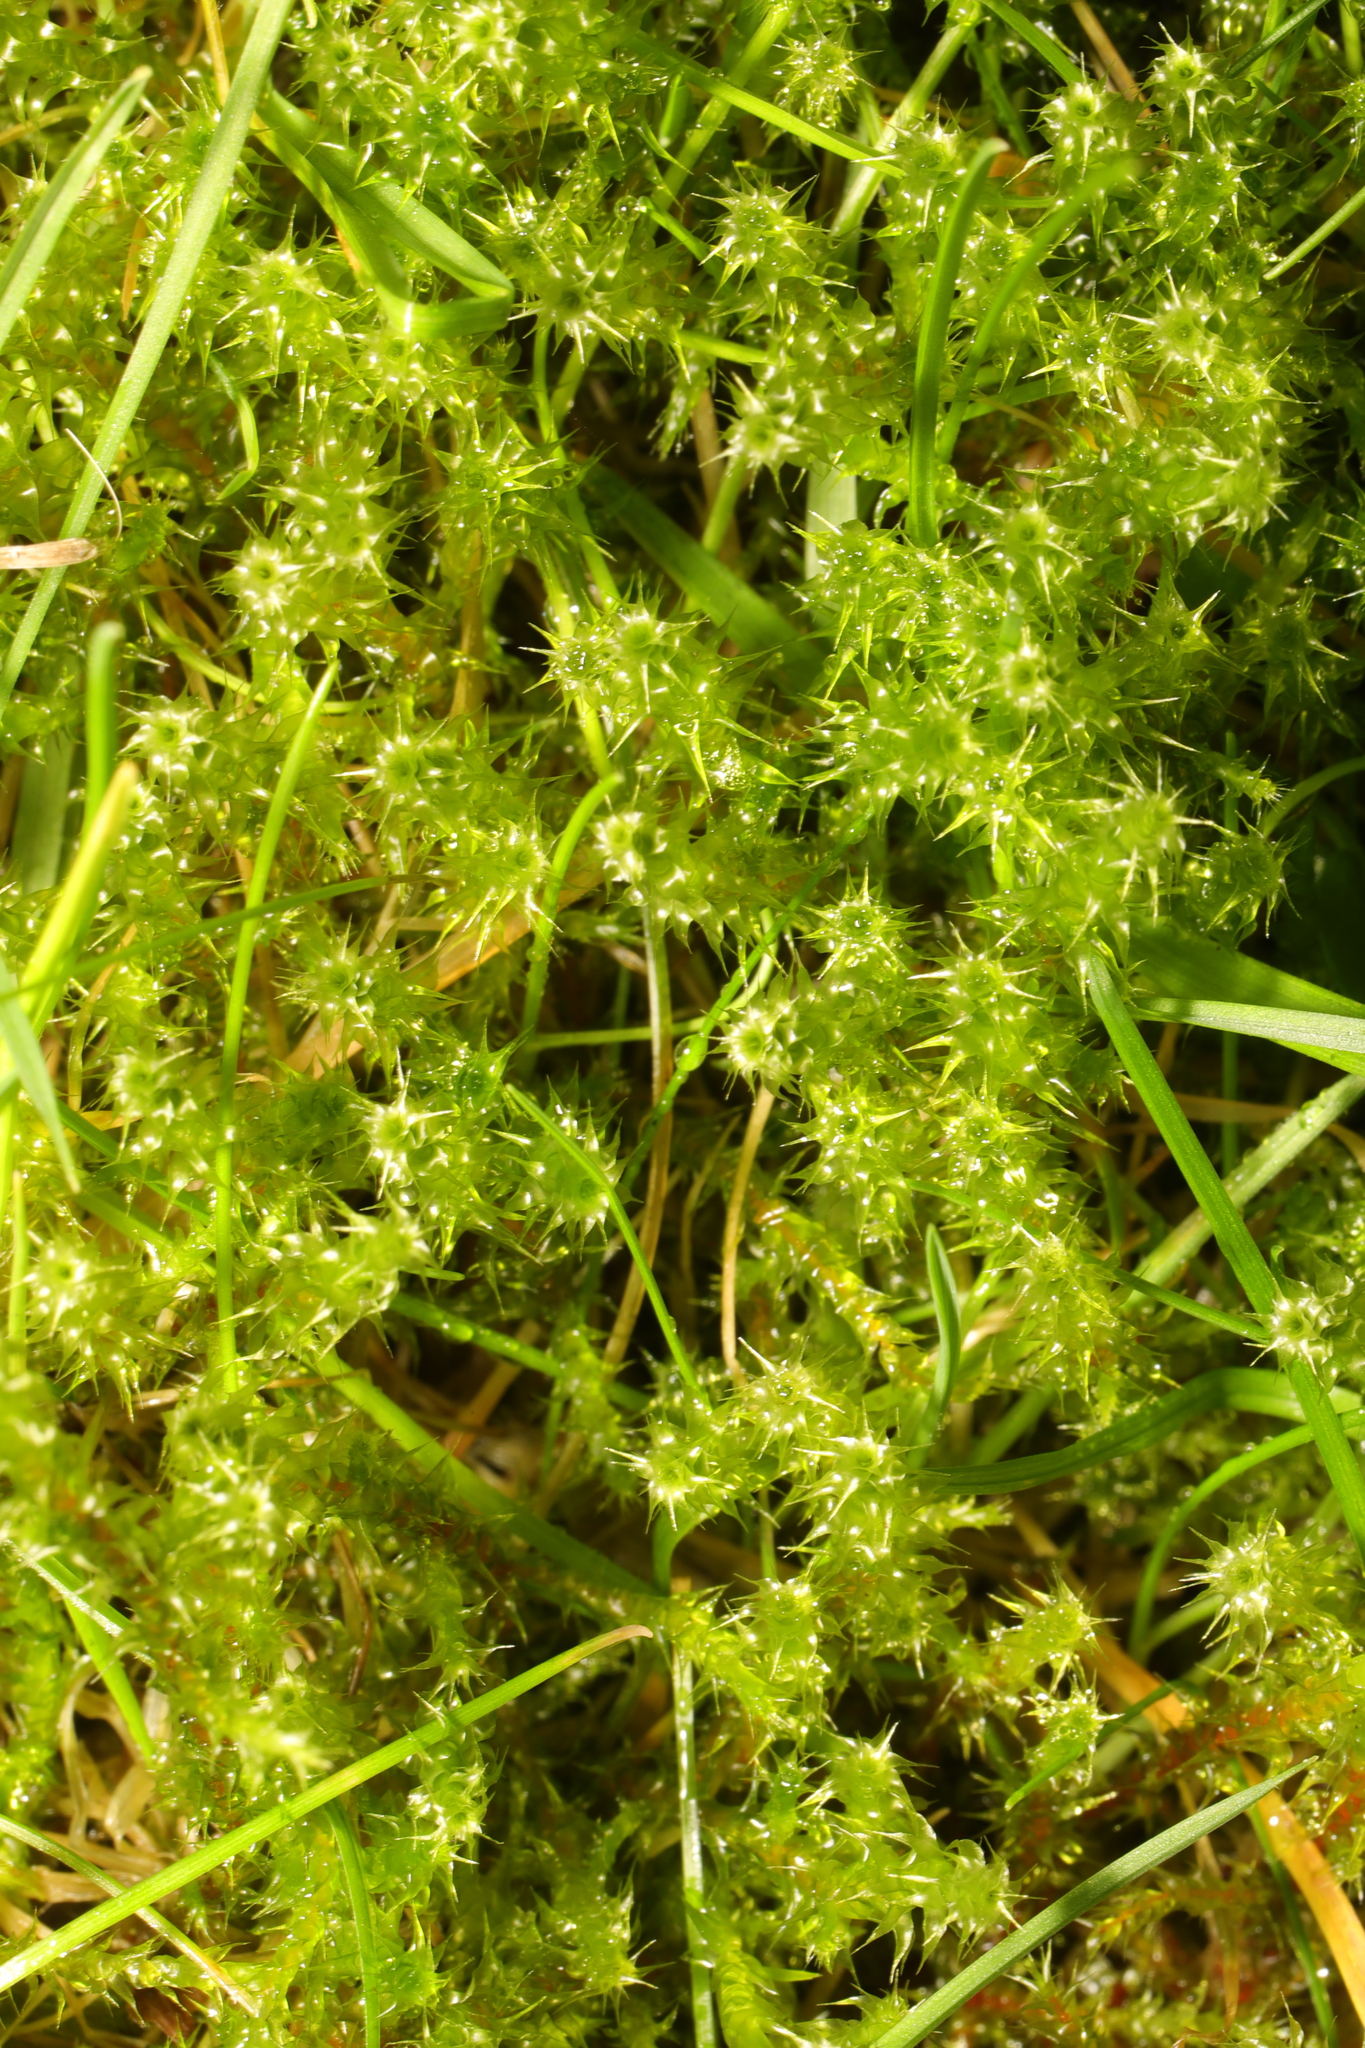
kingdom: Plantae
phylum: Bryophyta
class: Bryopsida
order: Hypnales
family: Hylocomiaceae
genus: Rhytidiadelphus
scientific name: Rhytidiadelphus squarrosus
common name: Springy turf-moss
